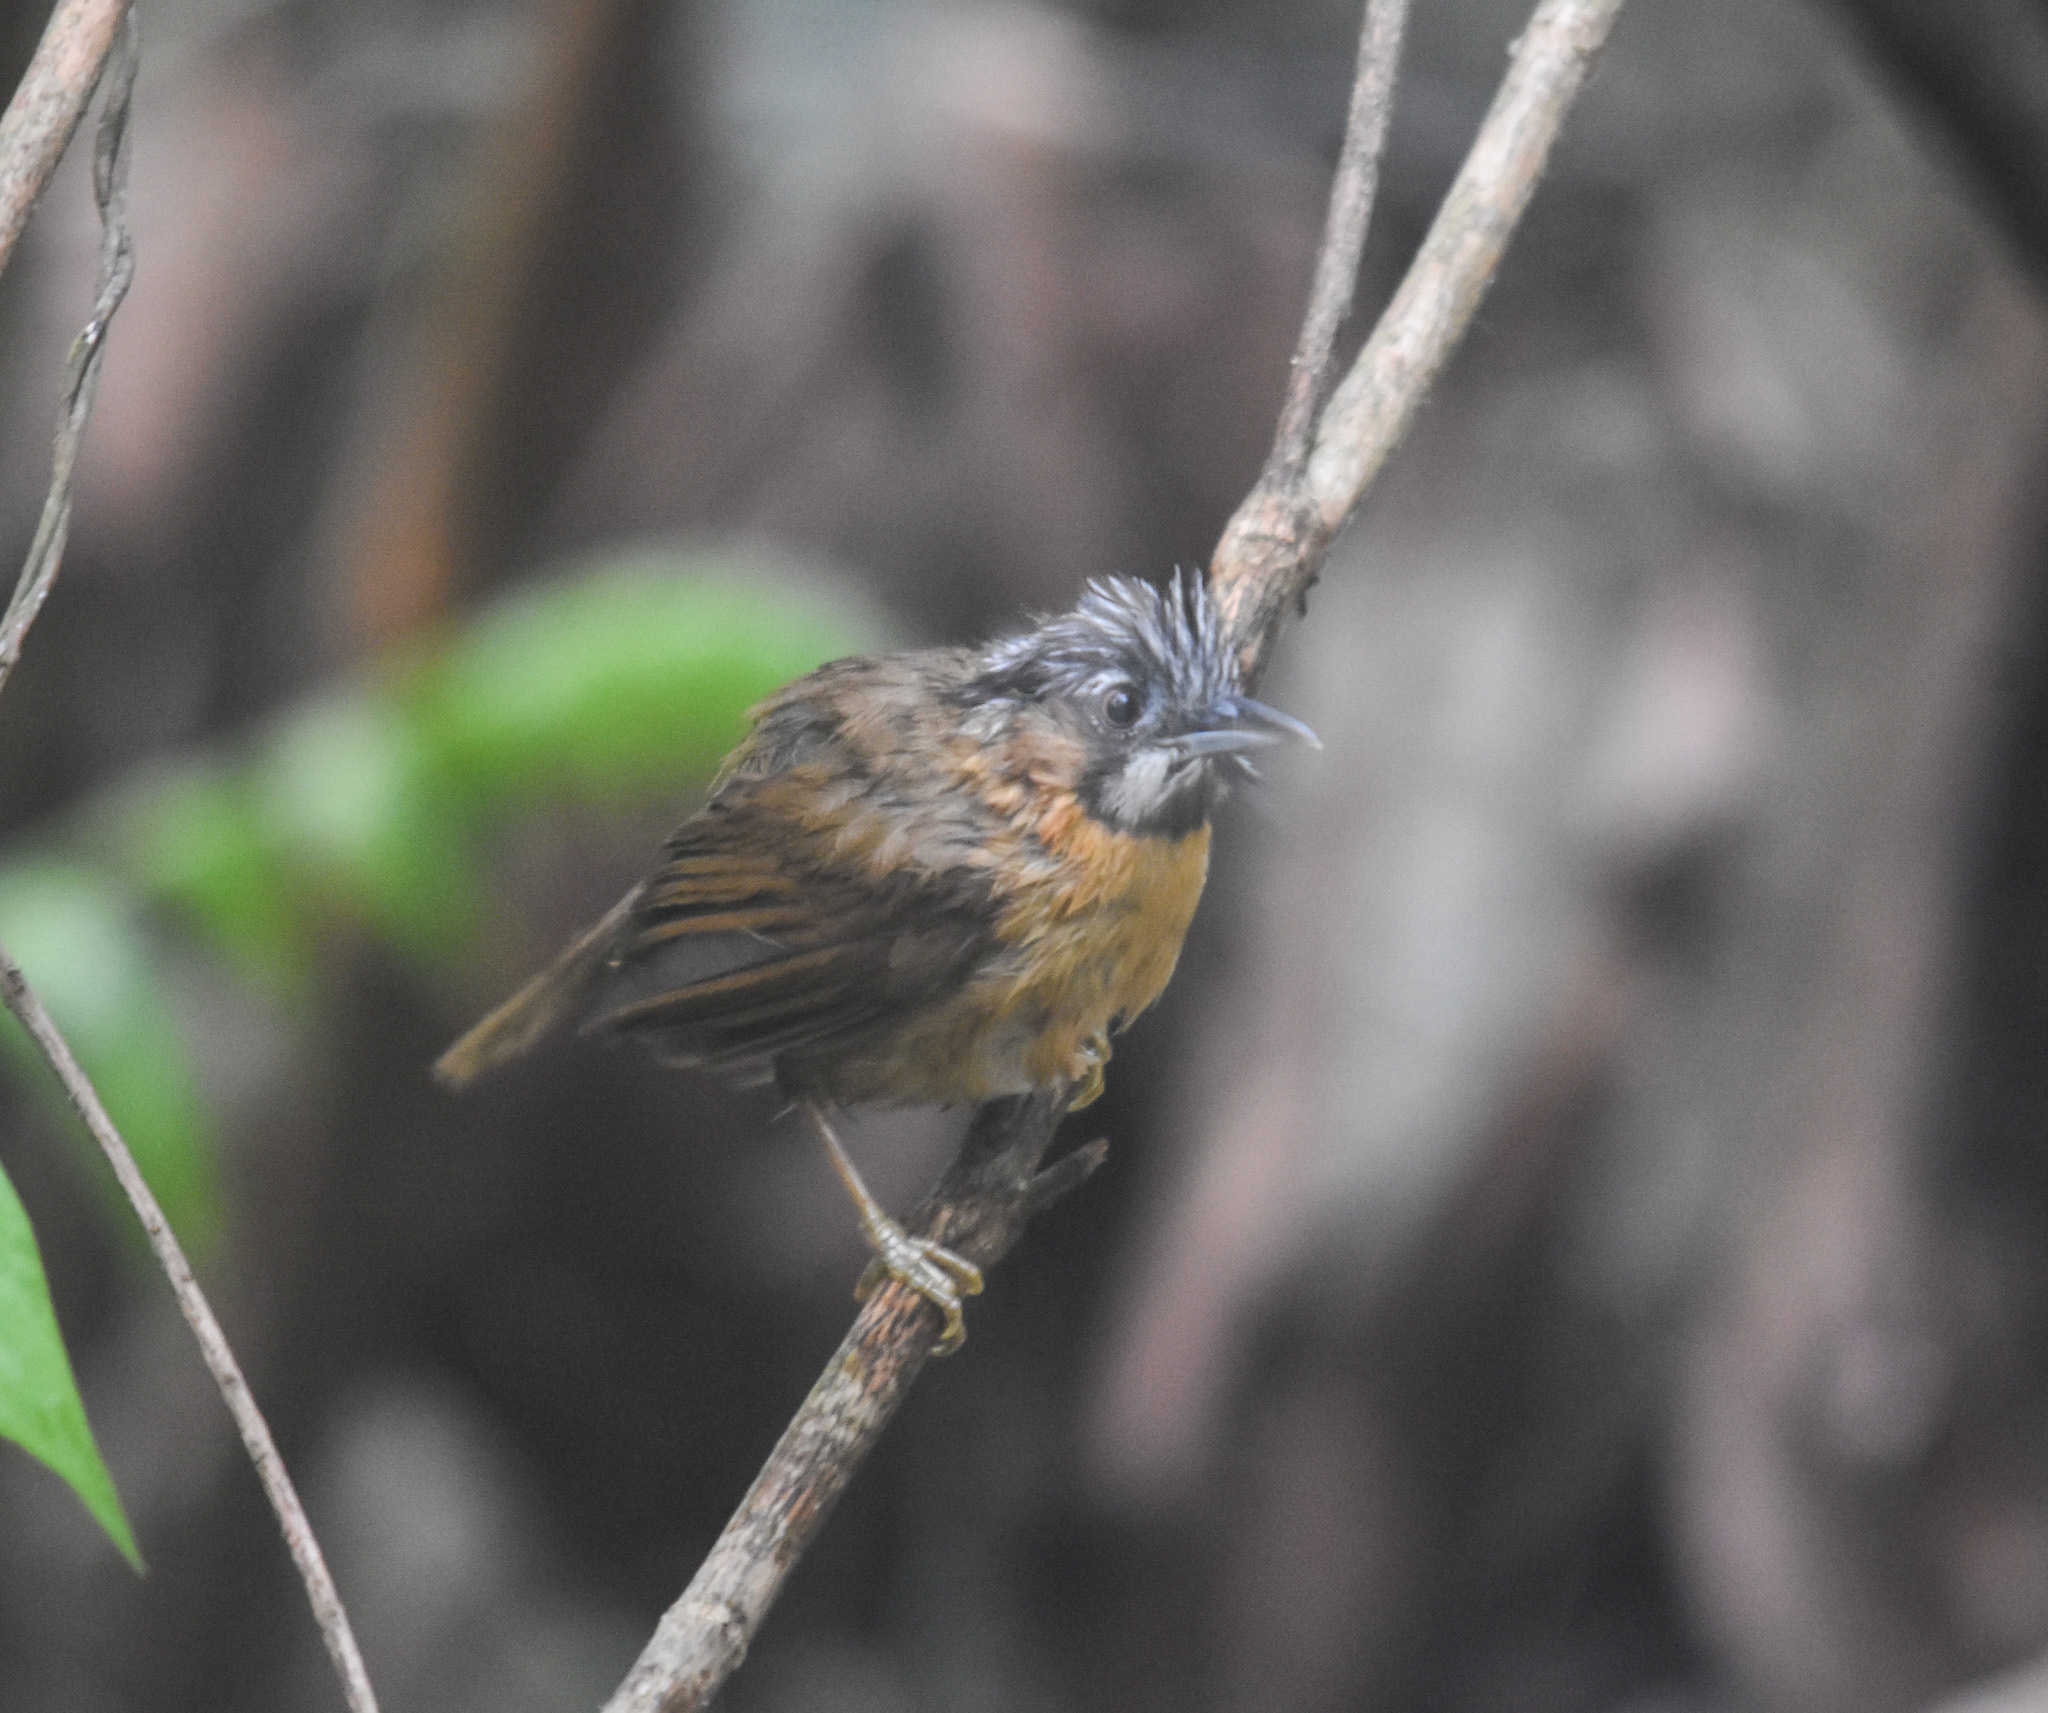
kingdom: Animalia
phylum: Chordata
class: Aves
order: Passeriformes
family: Timaliidae
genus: Stachyris
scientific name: Stachyris nigriceps
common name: Grey-throated babbler
